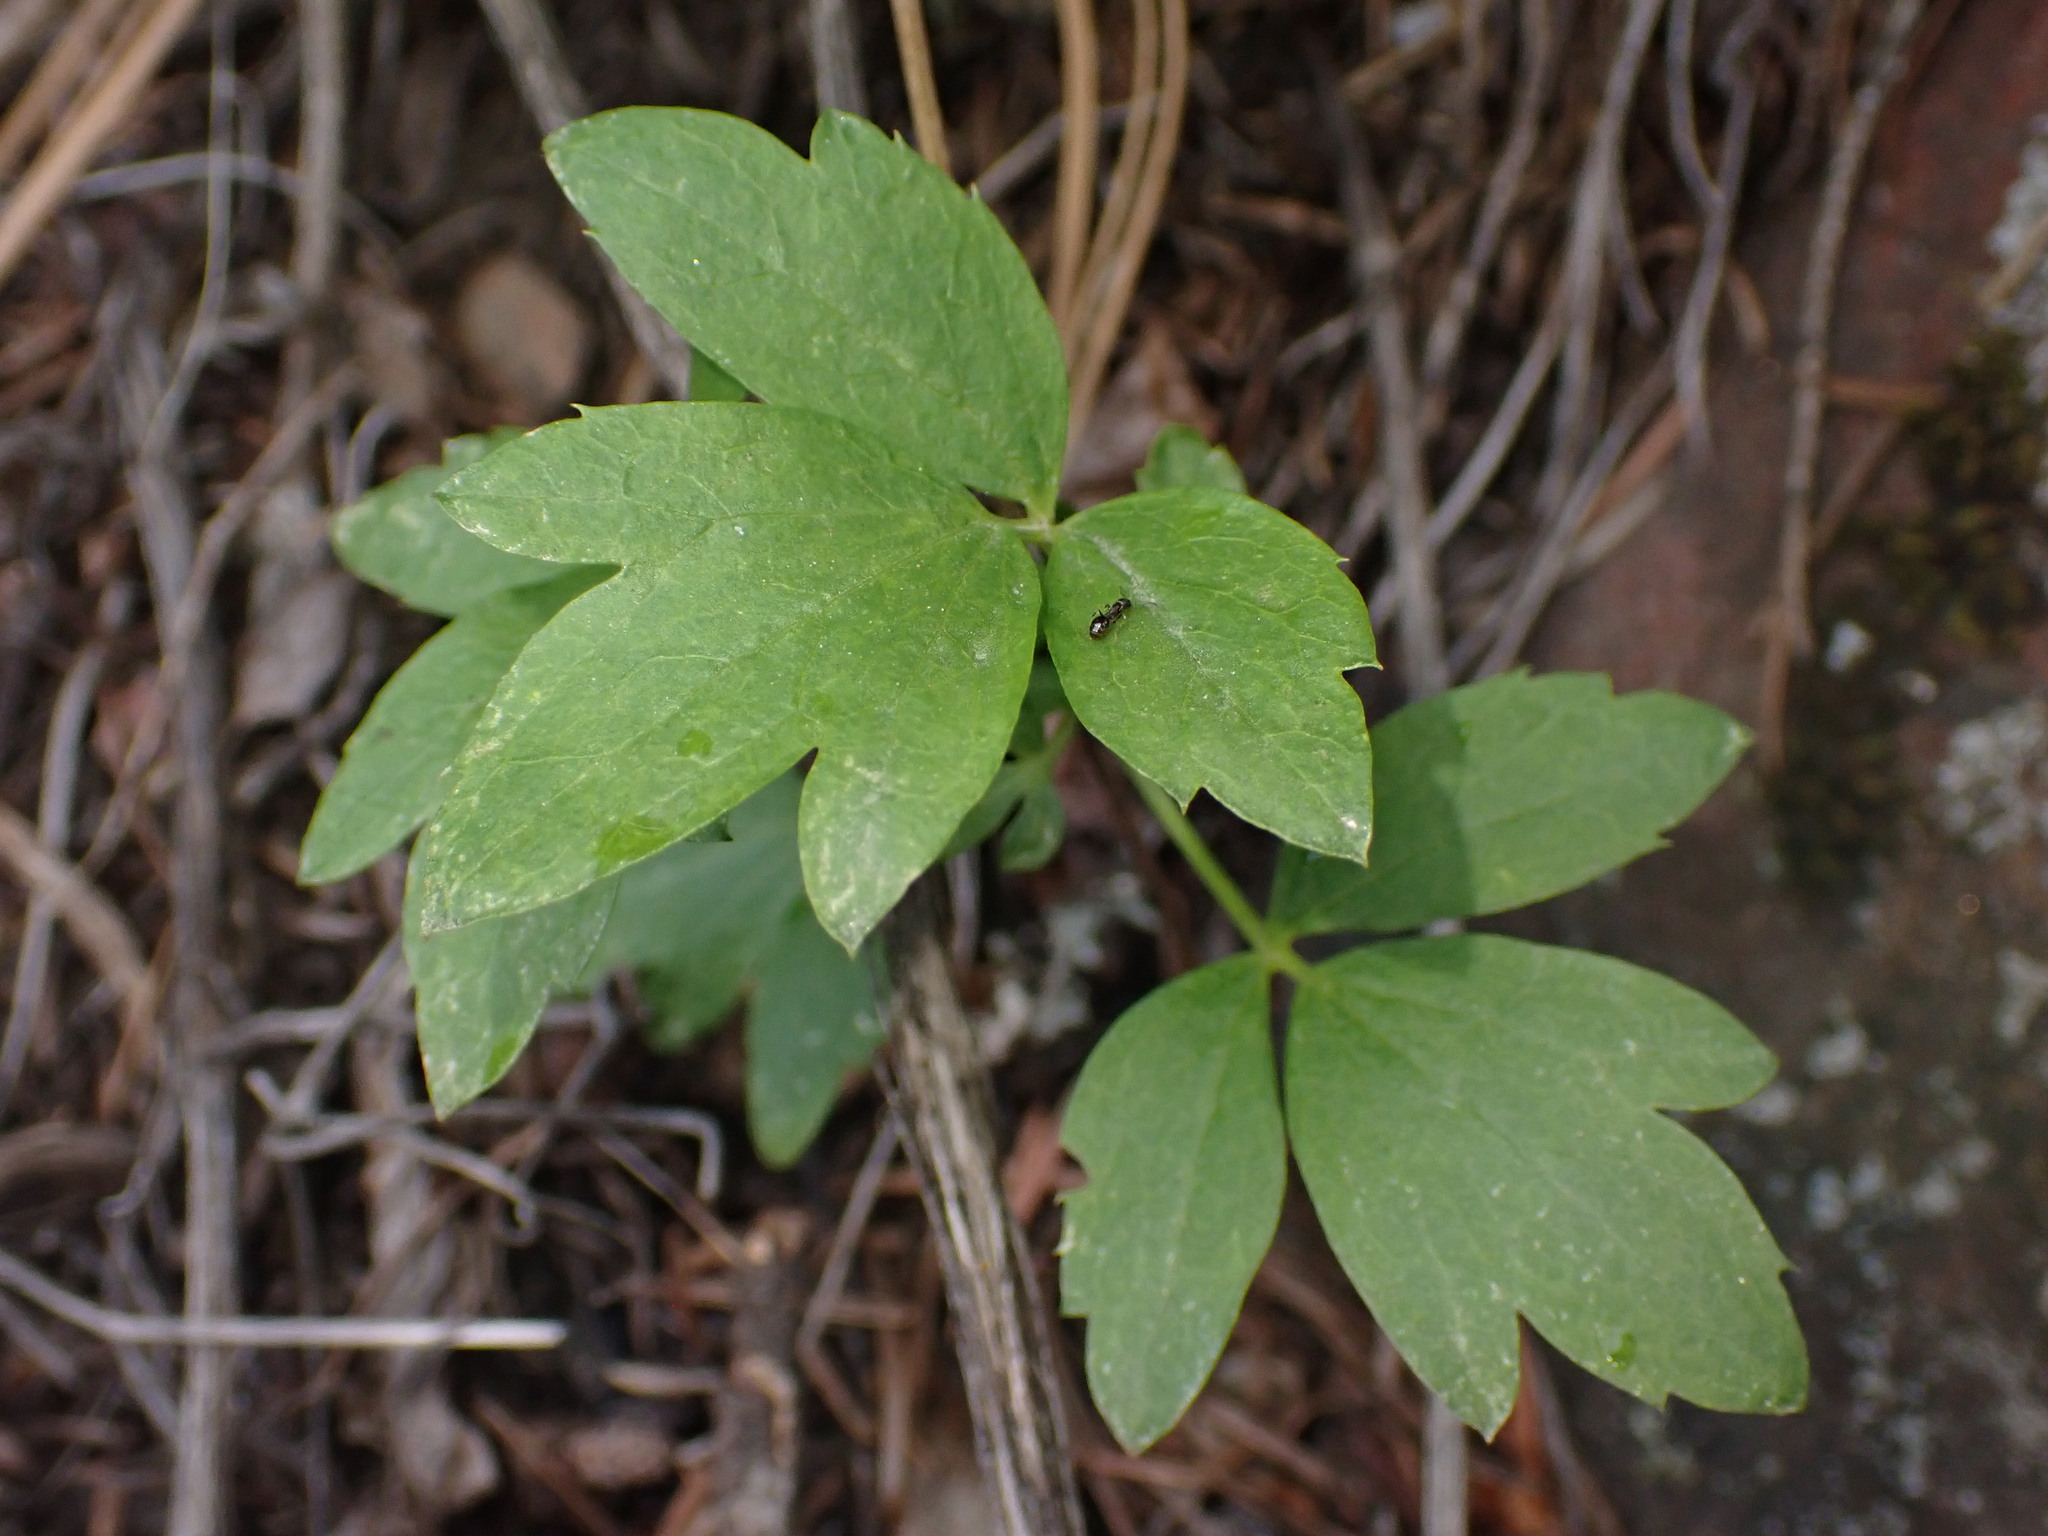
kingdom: Plantae
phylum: Tracheophyta
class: Magnoliopsida
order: Ranunculales
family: Ranunculaceae
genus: Clematis
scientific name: Clematis ligusticifolia
